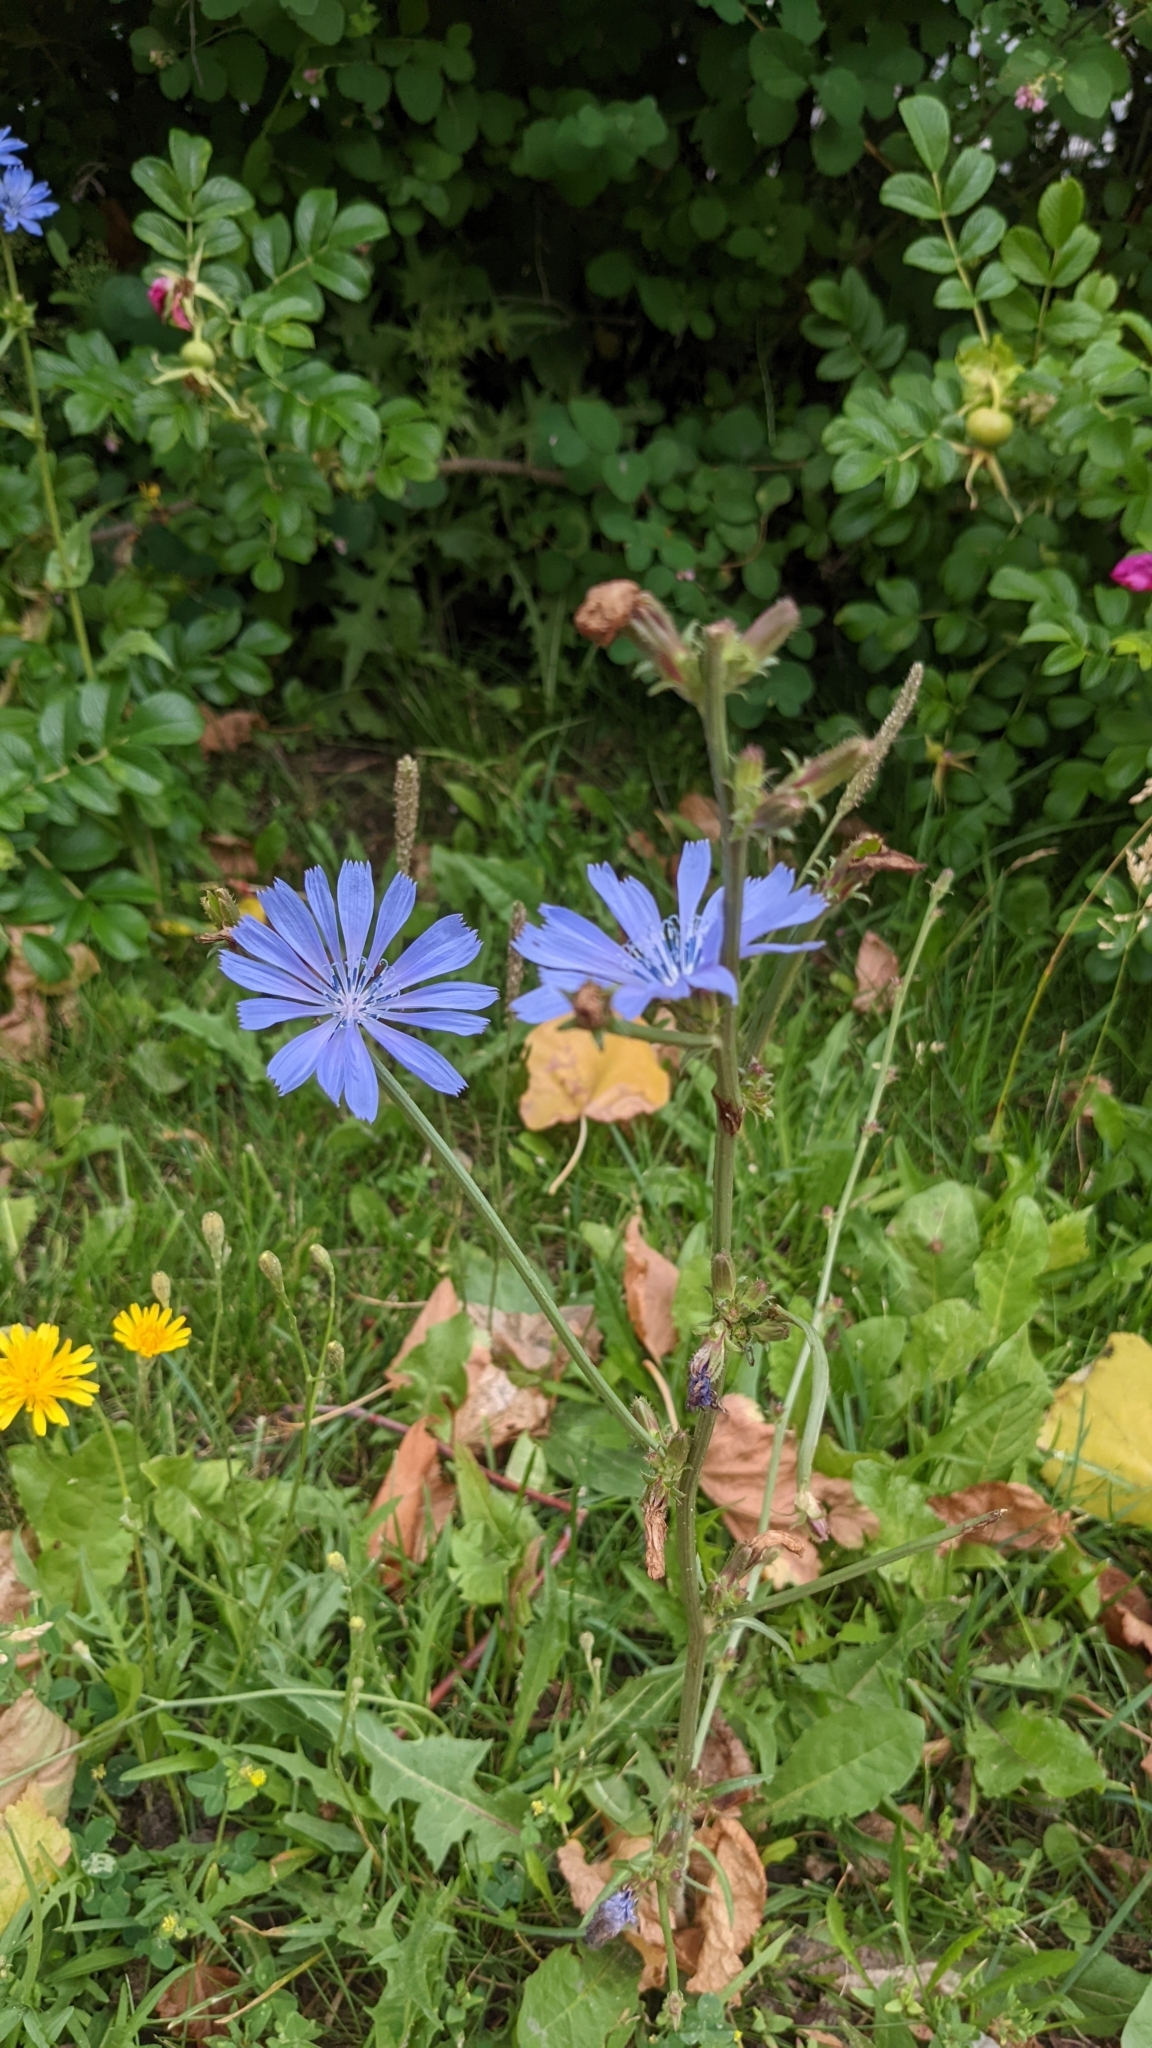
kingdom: Plantae
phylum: Tracheophyta
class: Magnoliopsida
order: Asterales
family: Asteraceae
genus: Cichorium
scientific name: Cichorium intybus
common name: Chicory
